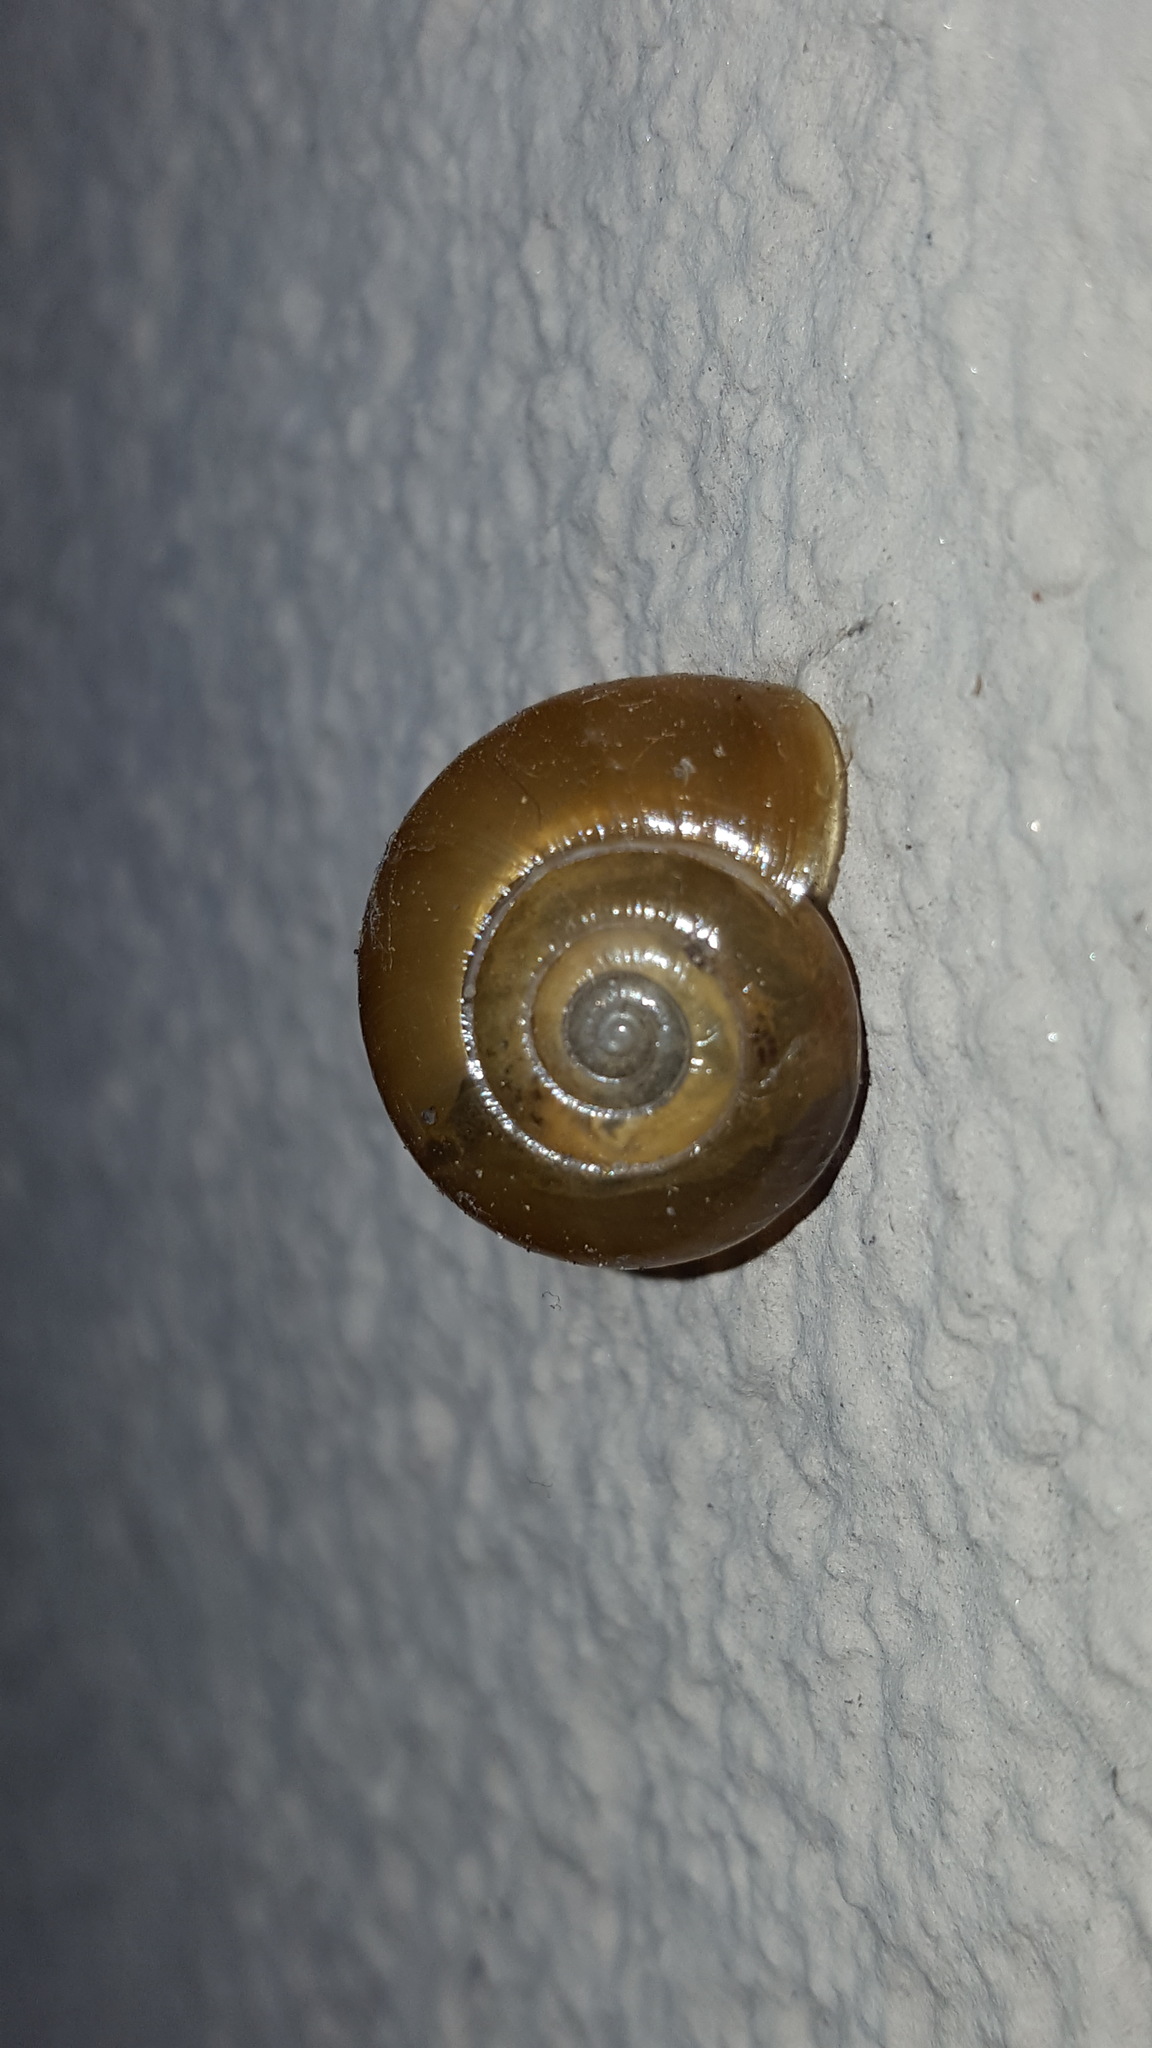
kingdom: Animalia
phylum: Mollusca
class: Gastropoda
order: Stylommatophora
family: Oxychilidae
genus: Oxychilus
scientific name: Oxychilus draparnaudi
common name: Draparnaud's glass snail
